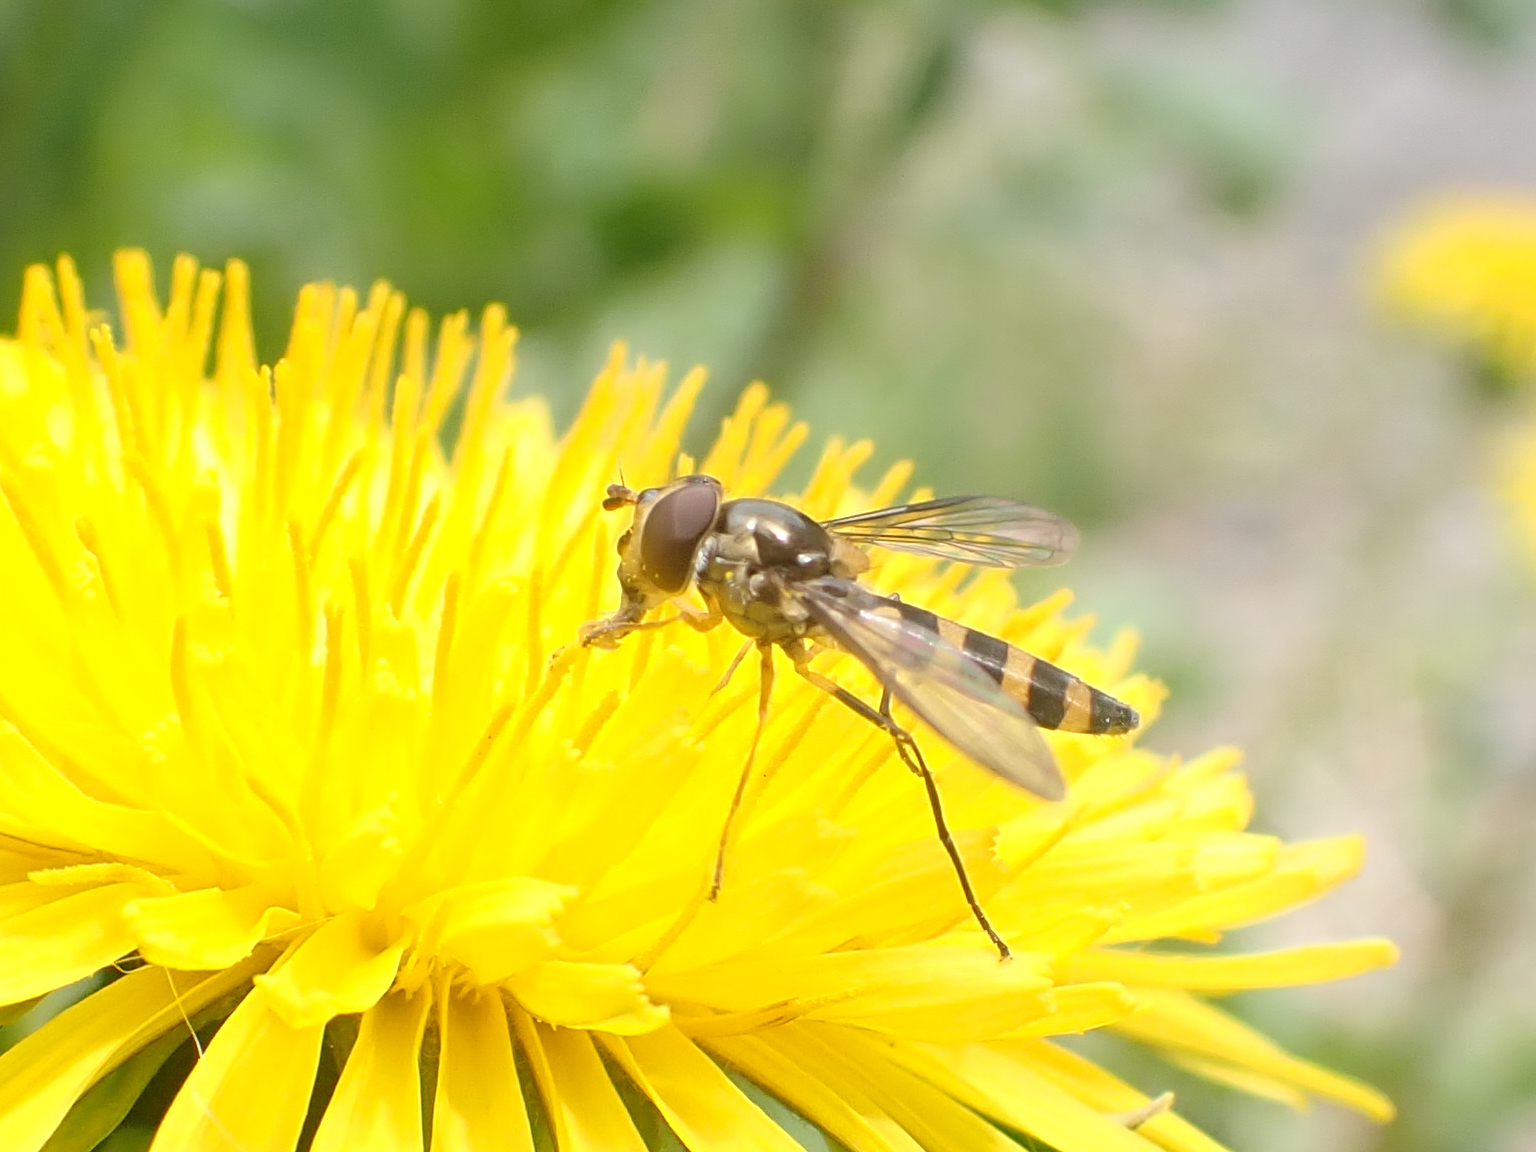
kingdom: Animalia
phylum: Arthropoda
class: Insecta
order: Diptera
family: Syrphidae
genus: Meliscaeva
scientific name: Meliscaeva cinctella
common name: American thintail fly
